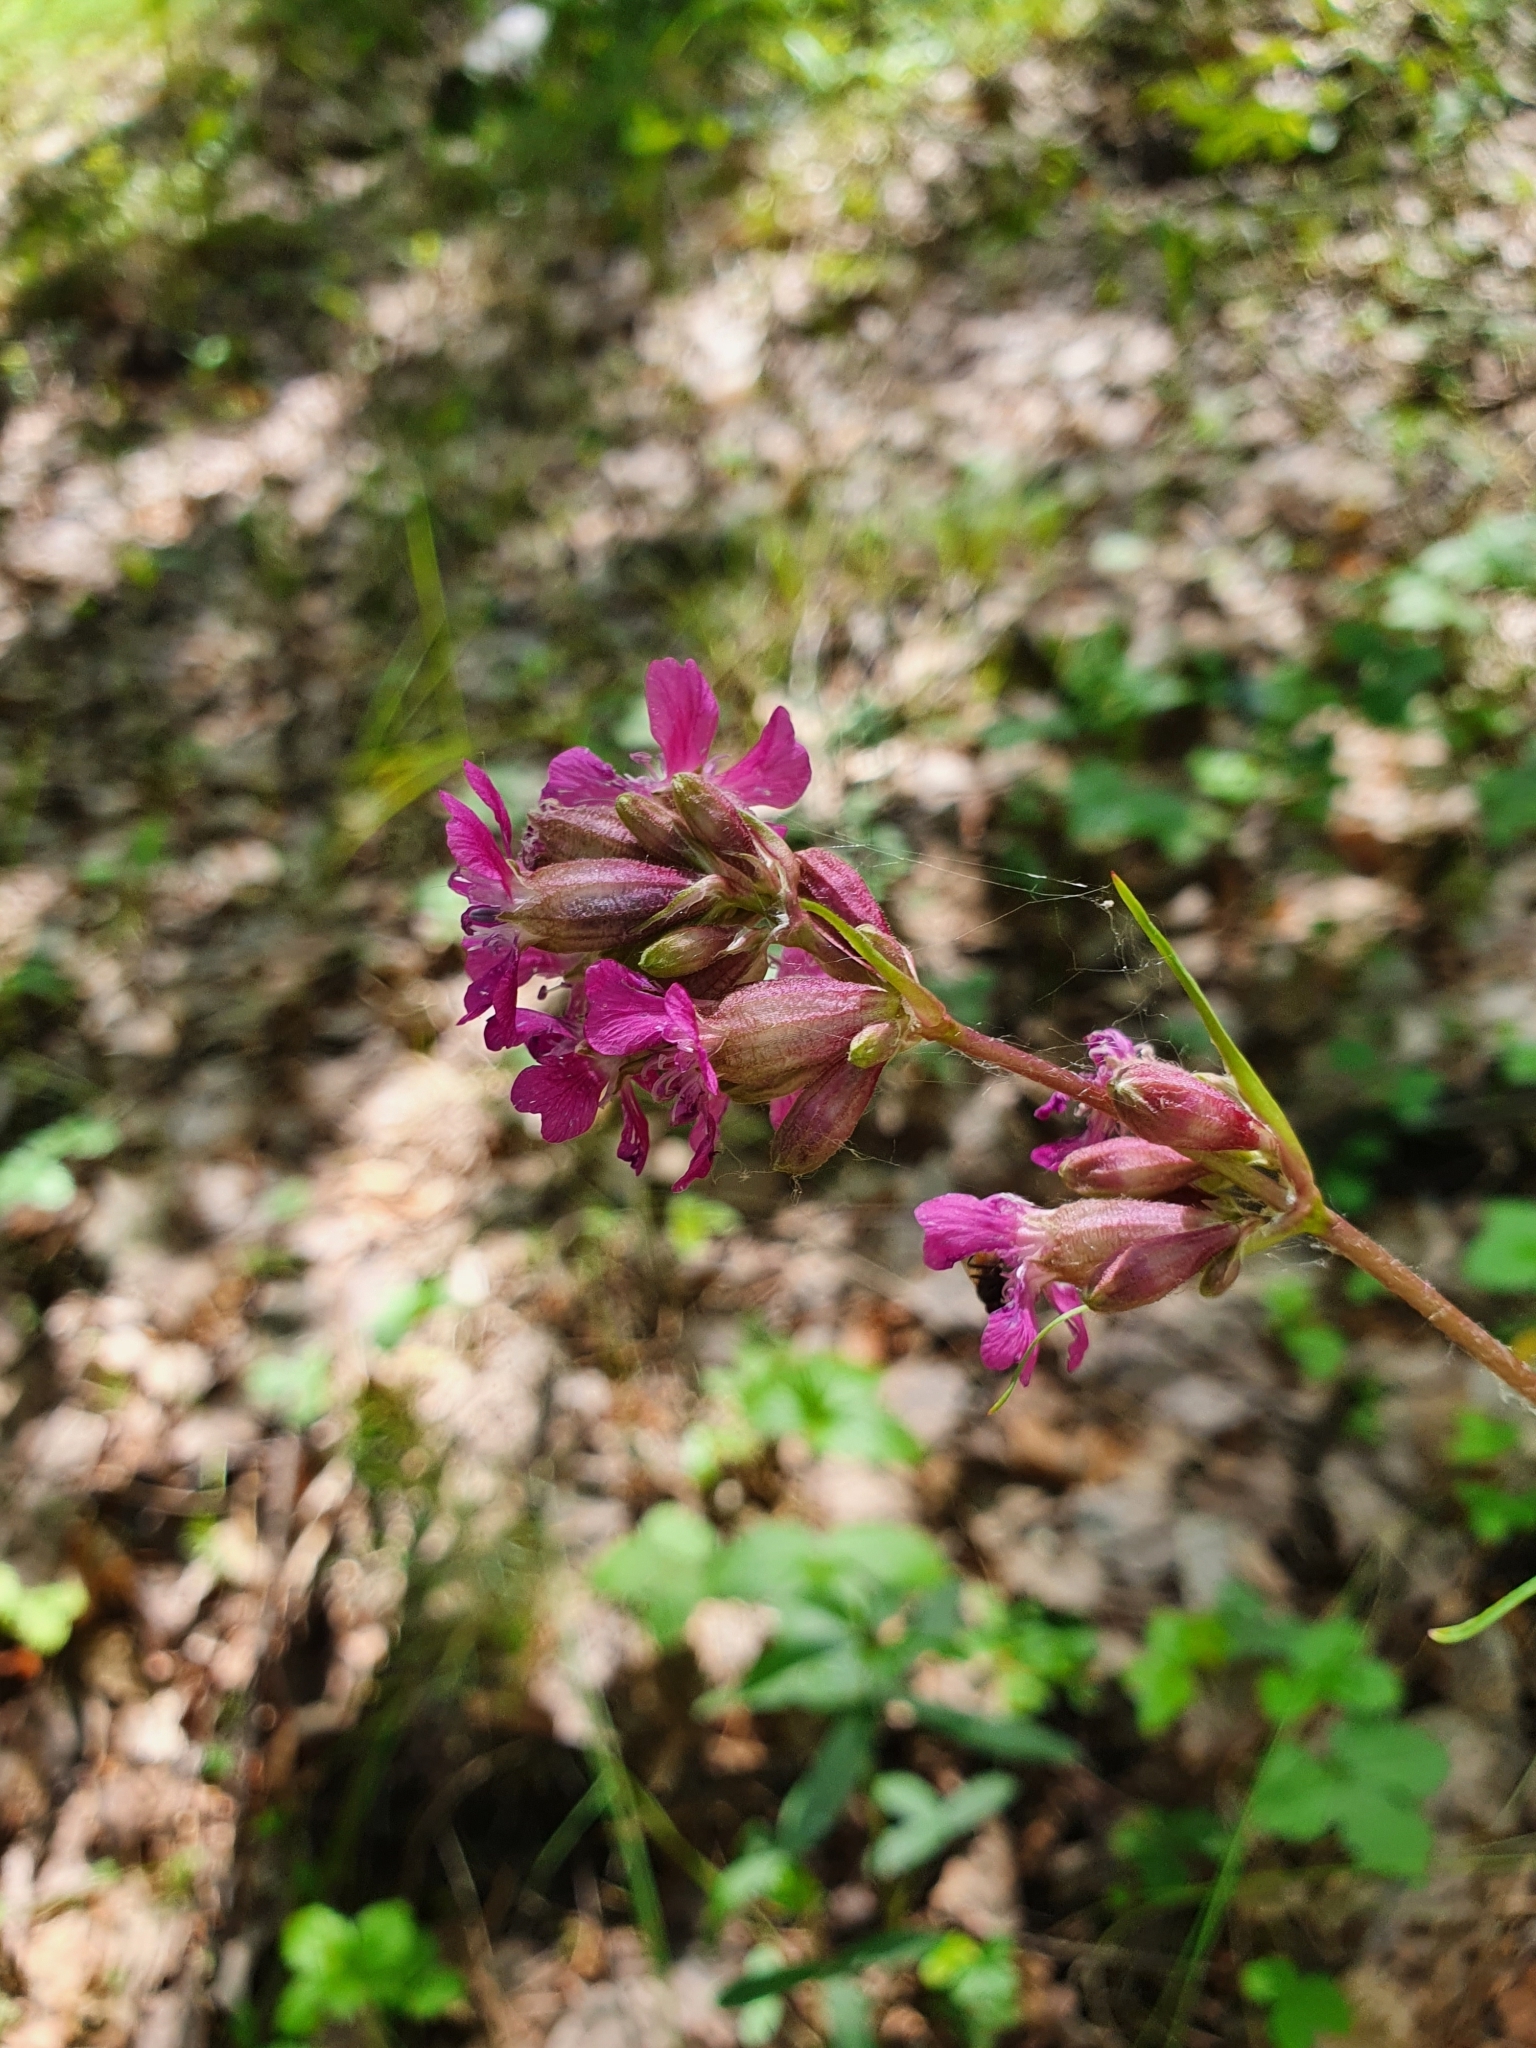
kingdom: Plantae
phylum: Tracheophyta
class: Magnoliopsida
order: Caryophyllales
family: Caryophyllaceae
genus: Viscaria
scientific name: Viscaria vulgaris
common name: Clammy campion
